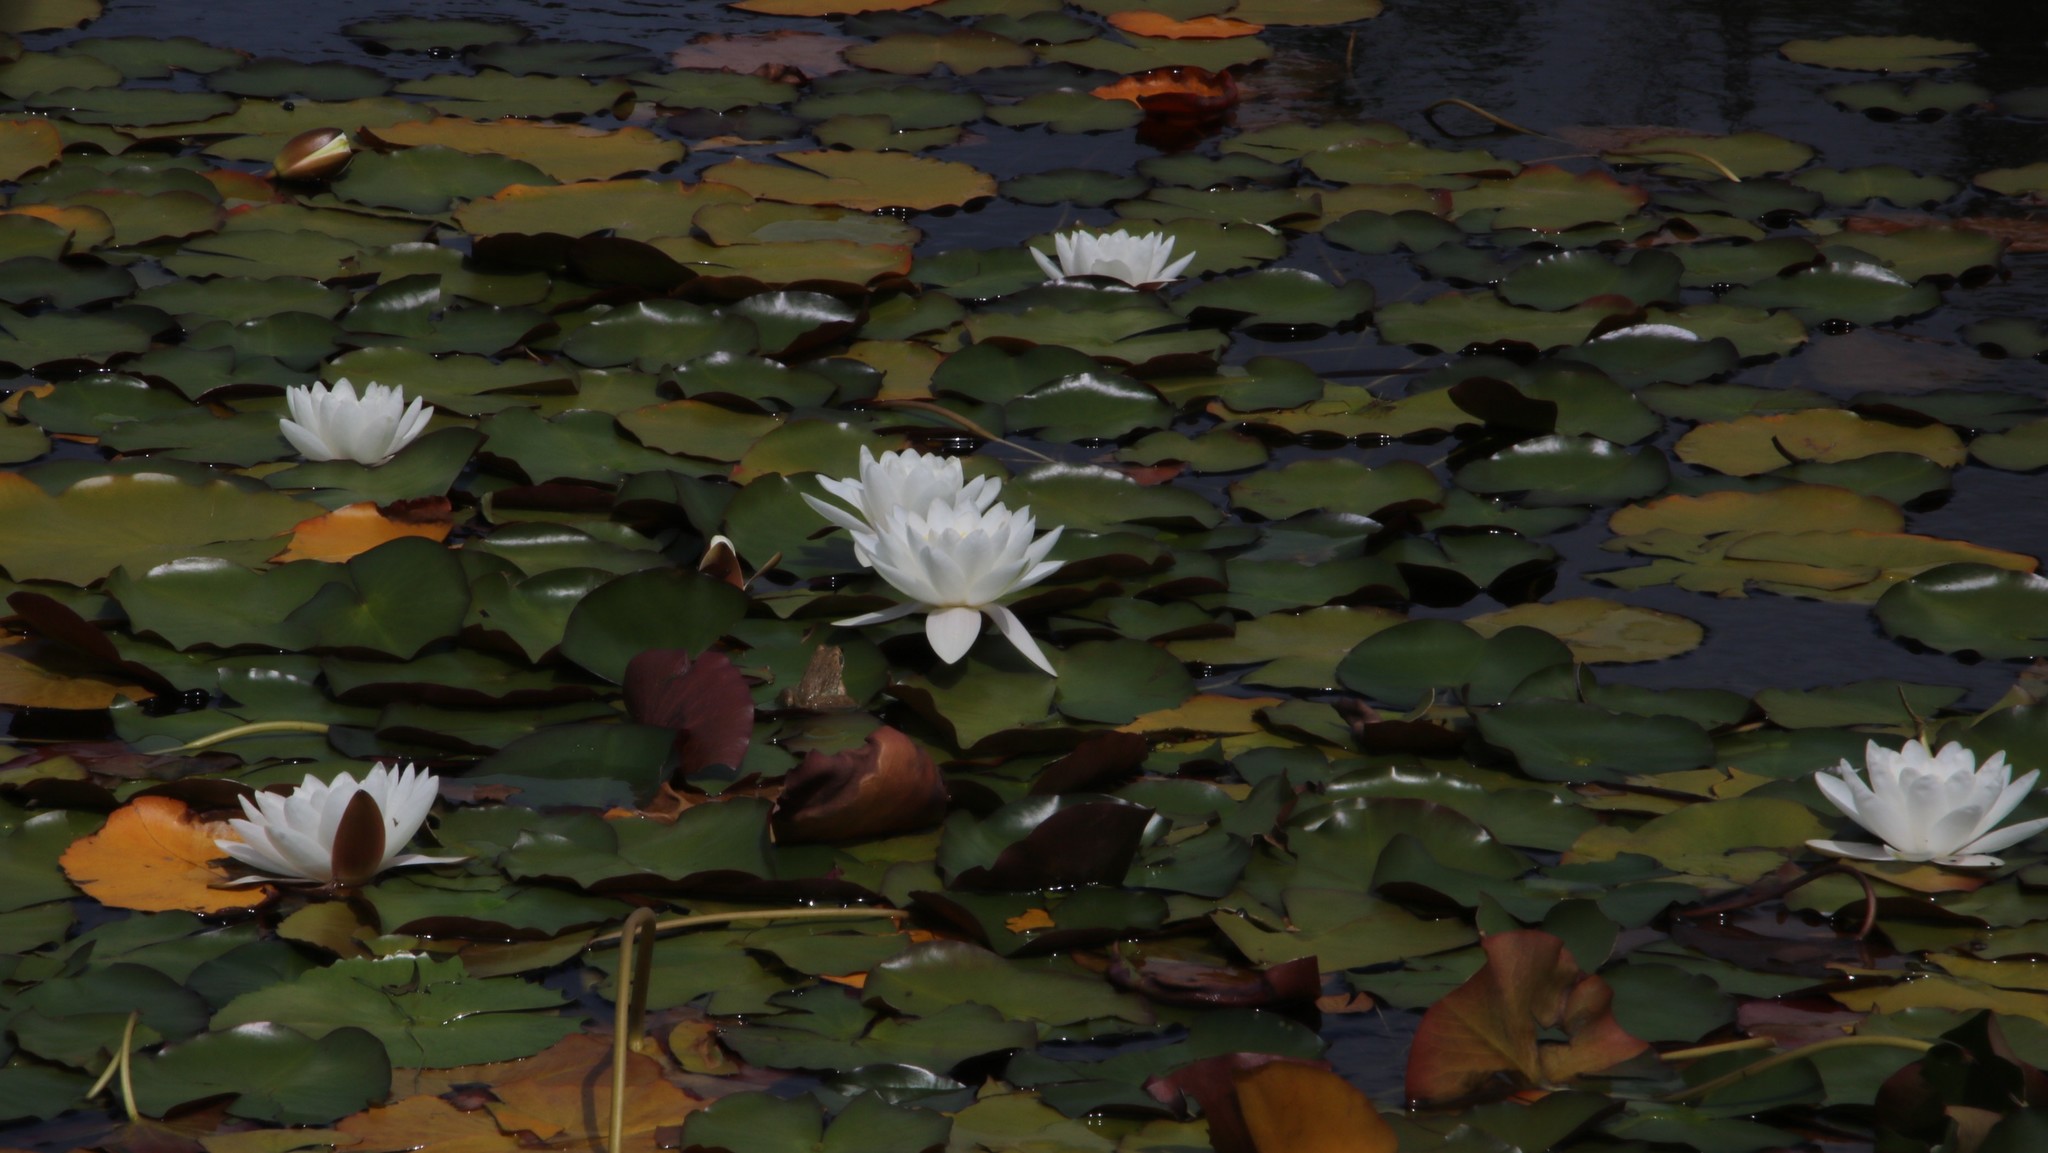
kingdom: Plantae
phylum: Tracheophyta
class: Magnoliopsida
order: Nymphaeales
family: Nymphaeaceae
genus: Nymphaea
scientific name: Nymphaea alba
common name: White water-lily
